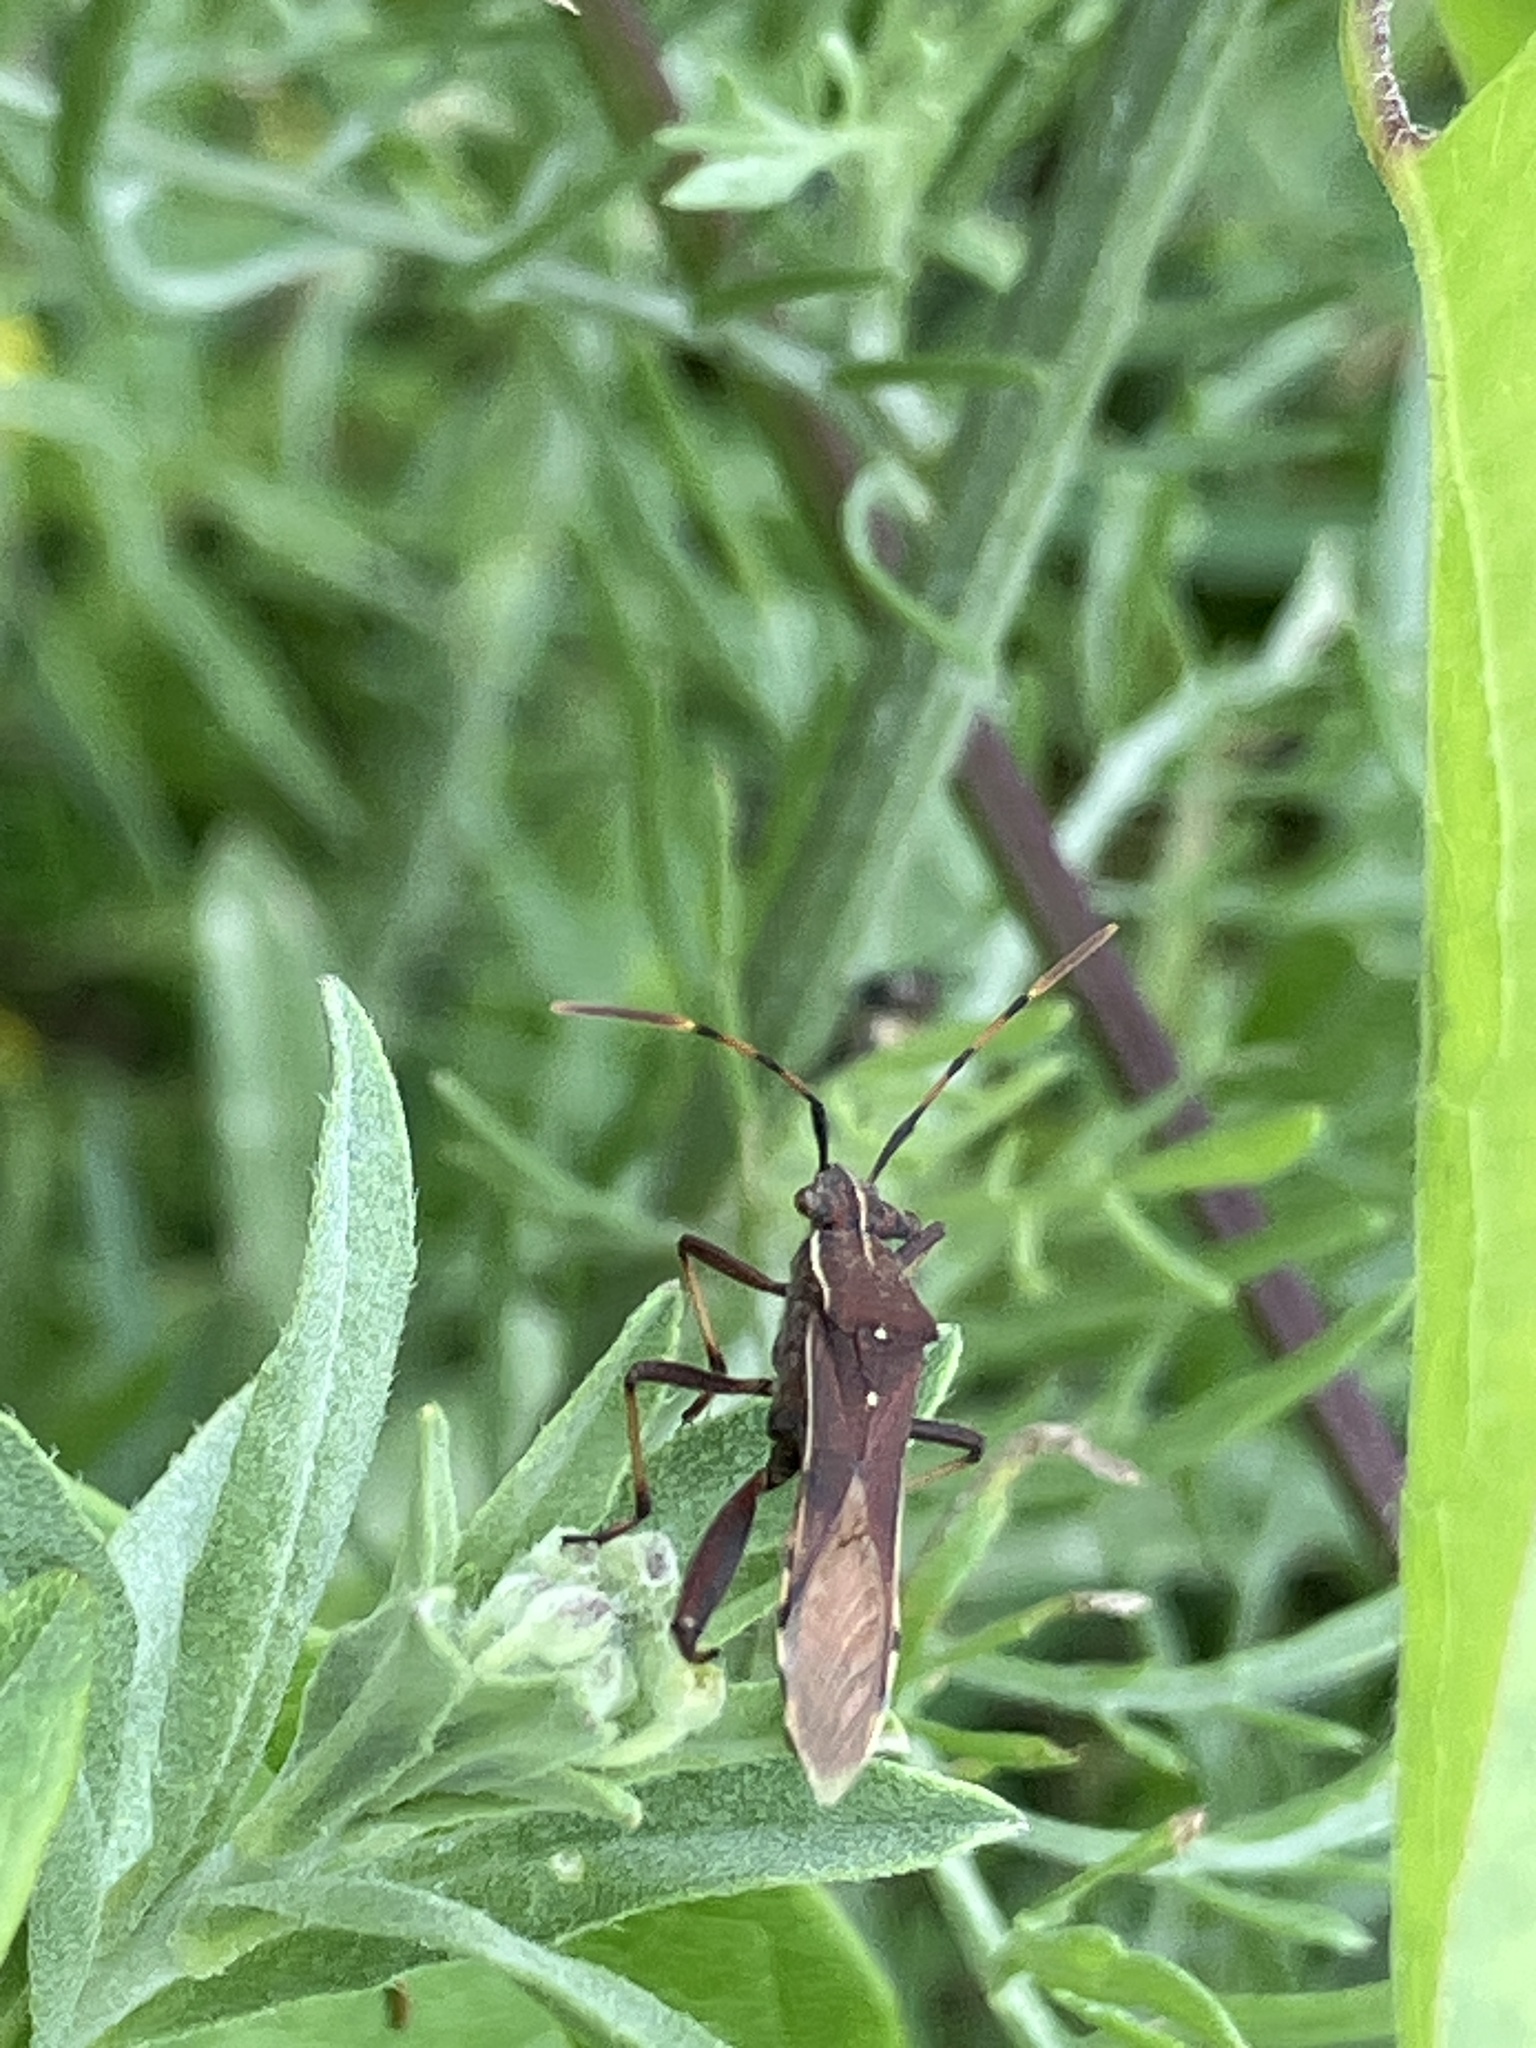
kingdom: Animalia
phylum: Arthropoda
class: Insecta
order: Hemiptera
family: Alydidae
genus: Camptopus
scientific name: Camptopus lateralis
